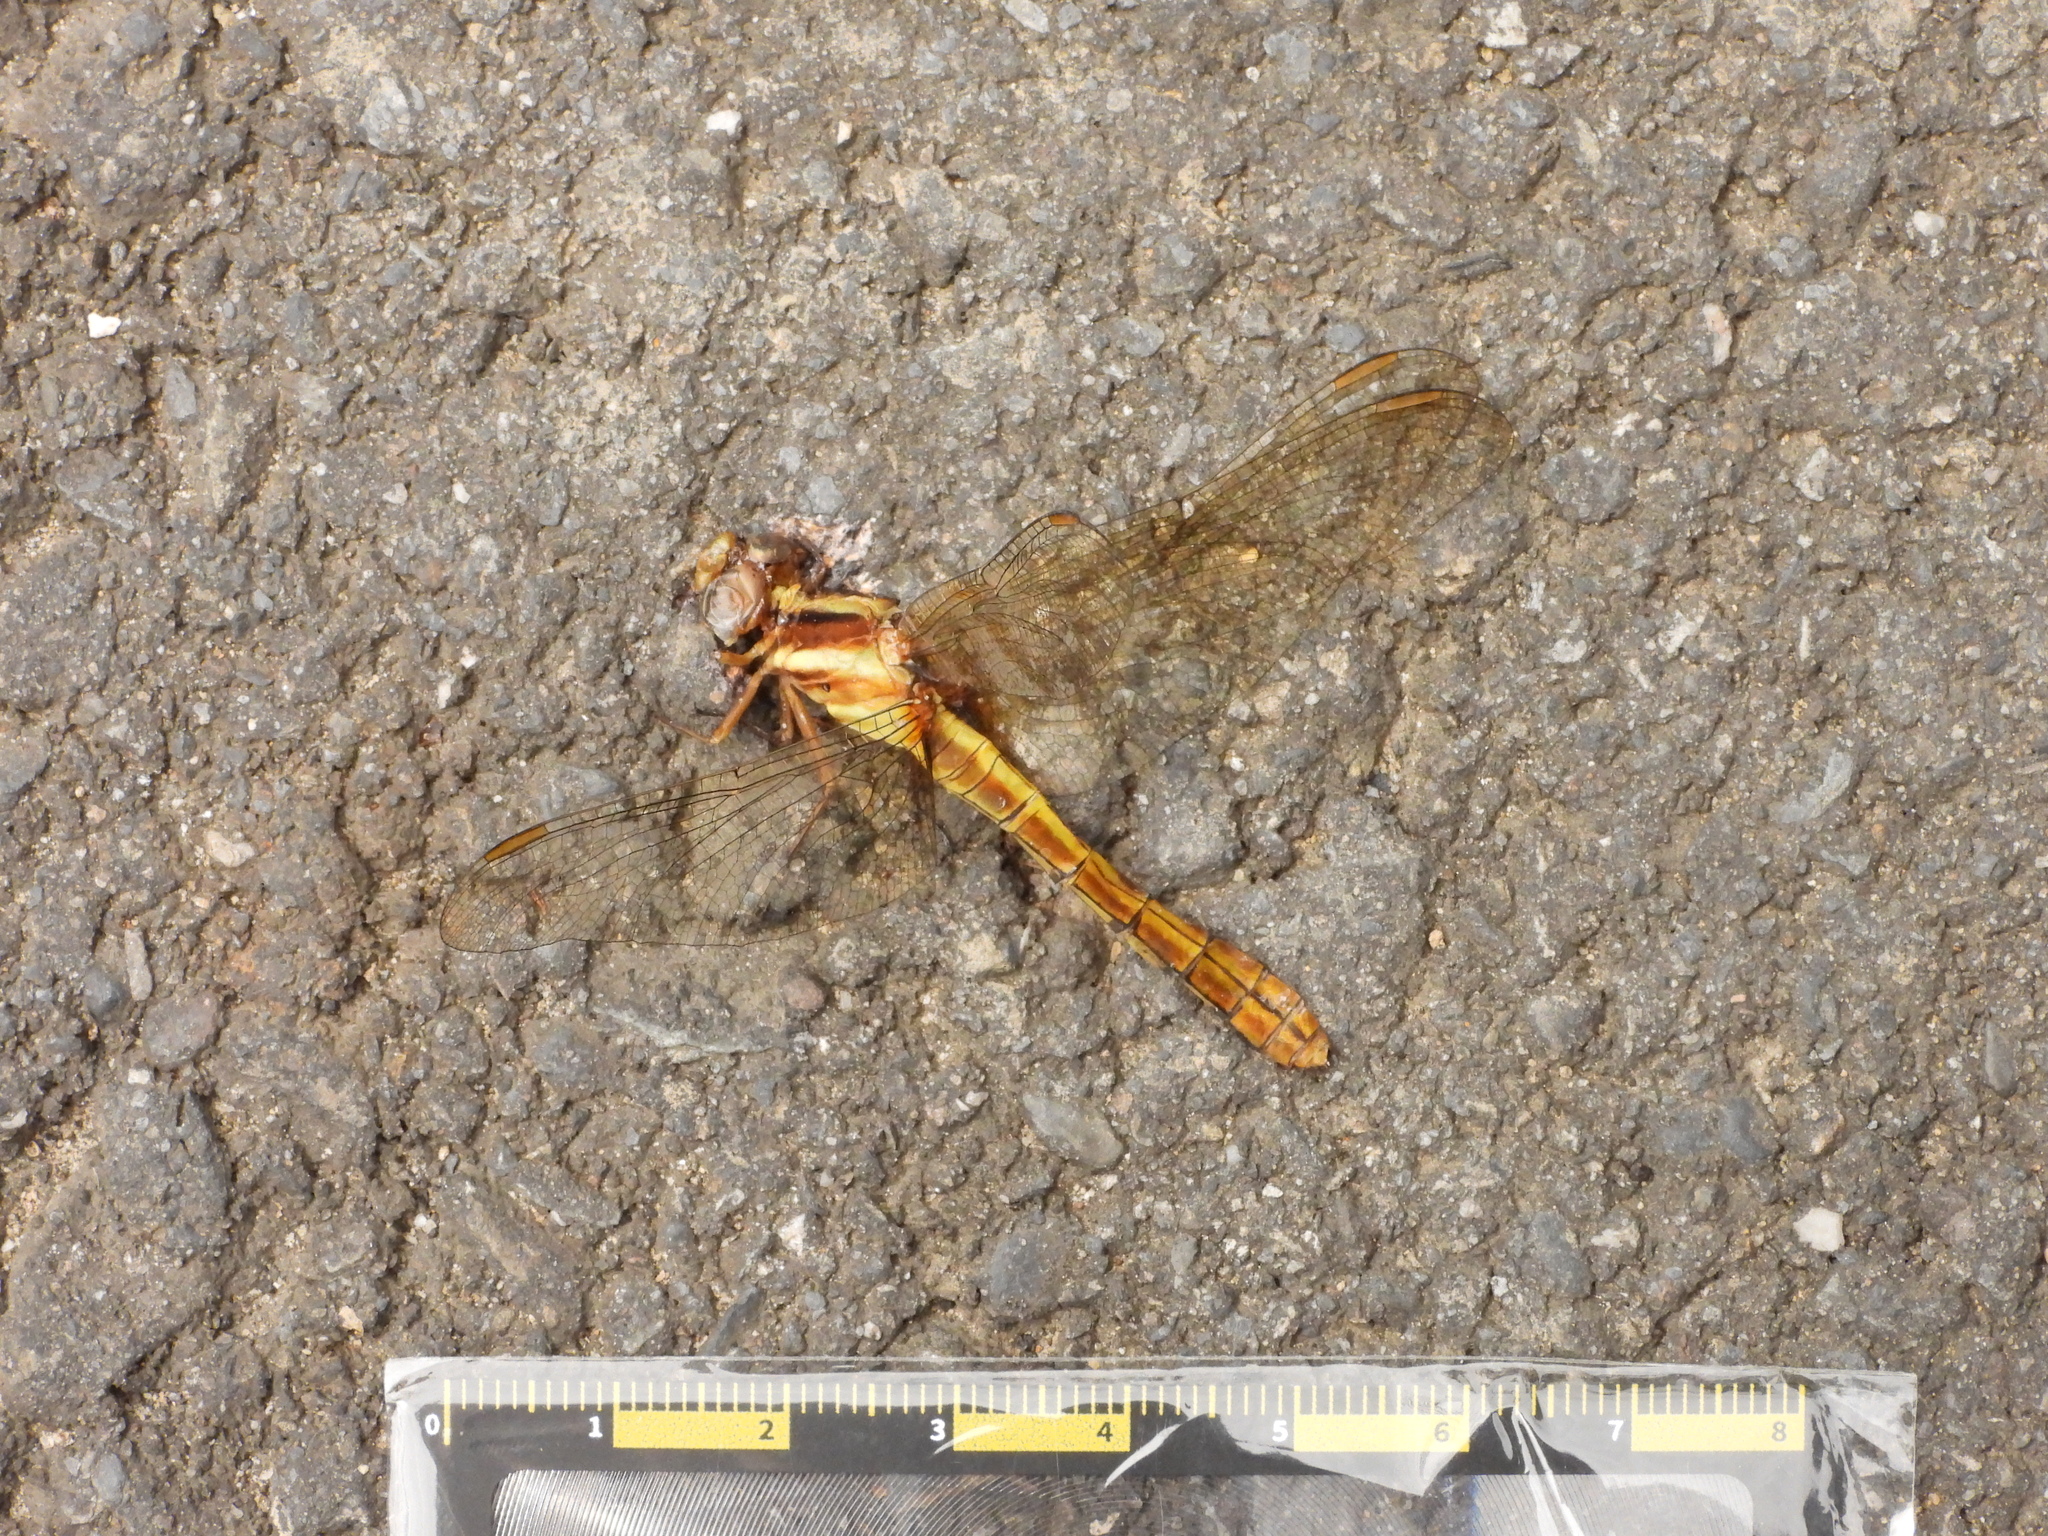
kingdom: Animalia
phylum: Arthropoda
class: Insecta
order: Odonata
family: Libellulidae
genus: Orthetrum
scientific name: Orthetrum glaucum
